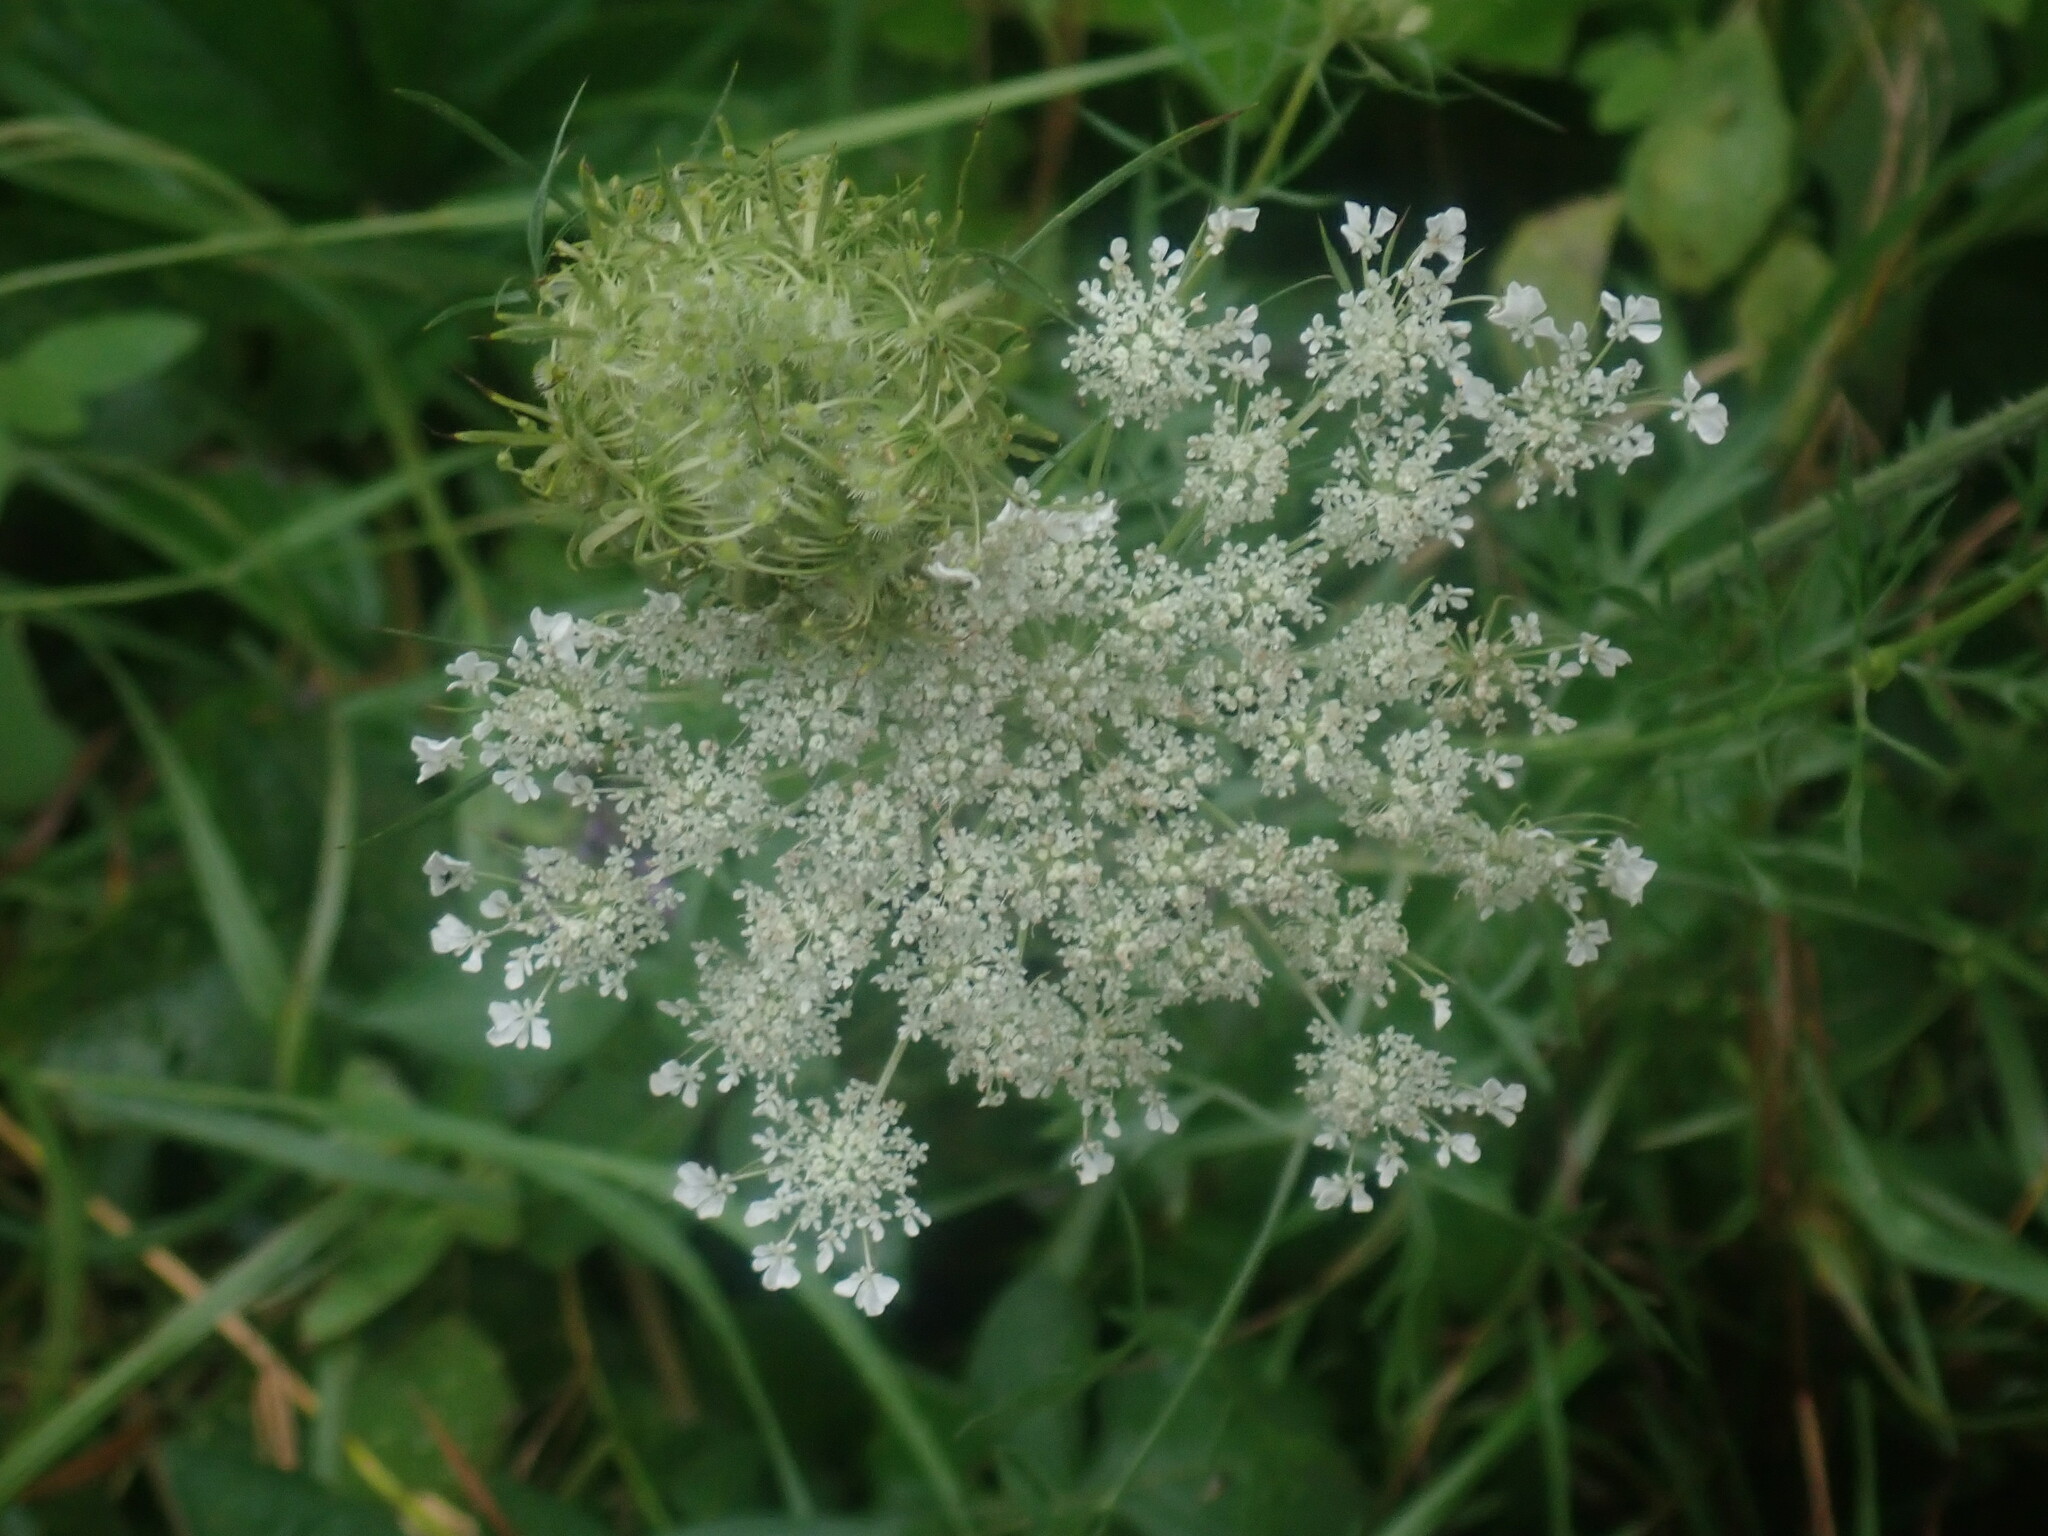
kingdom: Plantae
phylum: Tracheophyta
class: Magnoliopsida
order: Apiales
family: Apiaceae
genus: Daucus
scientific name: Daucus carota
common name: Wild carrot
